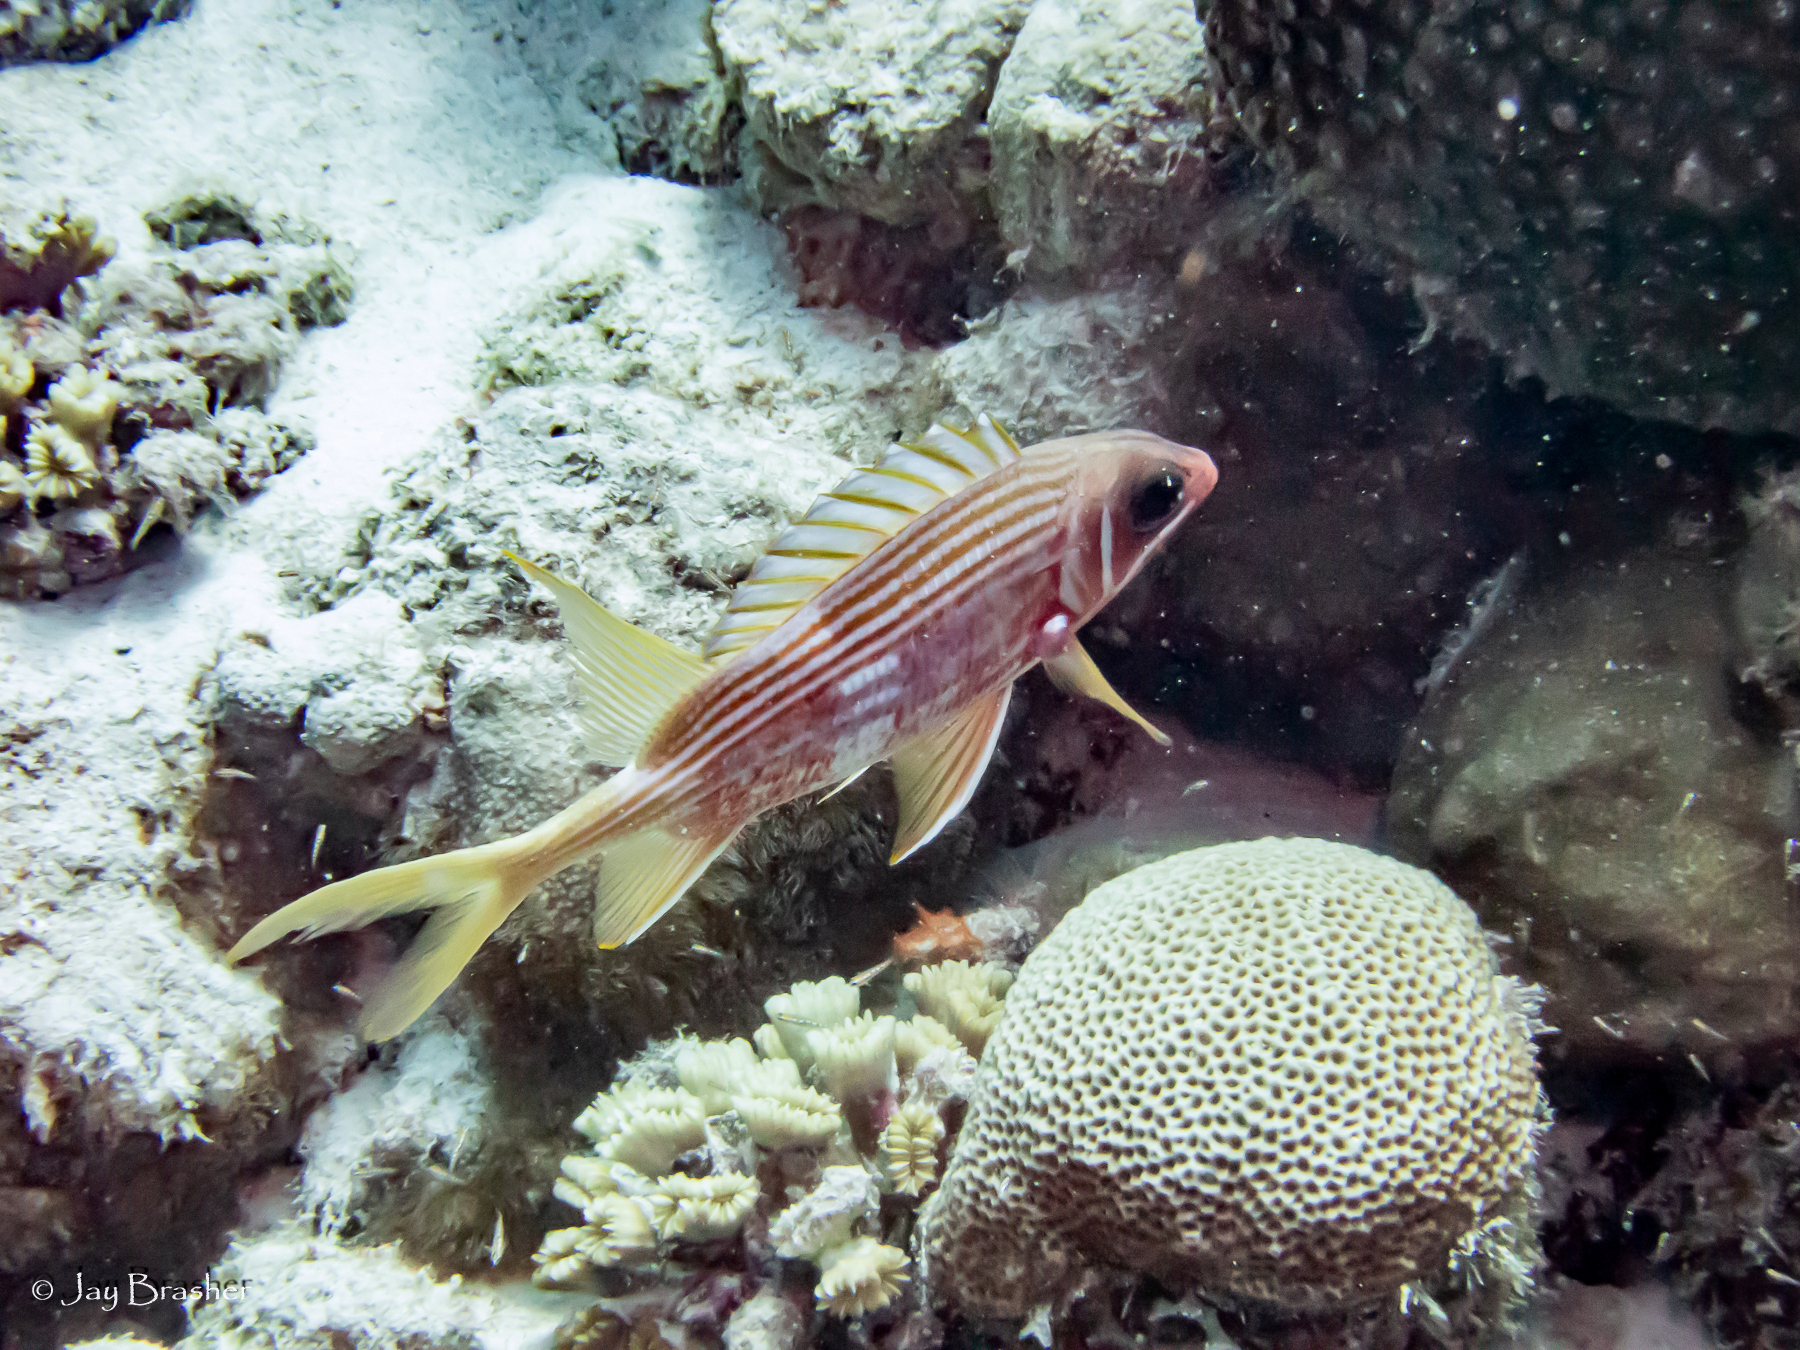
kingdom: Animalia
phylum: Chordata
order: Beryciformes
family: Holocentridae
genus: Holocentrus
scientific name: Holocentrus rufus
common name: Longspine squirrelfish
